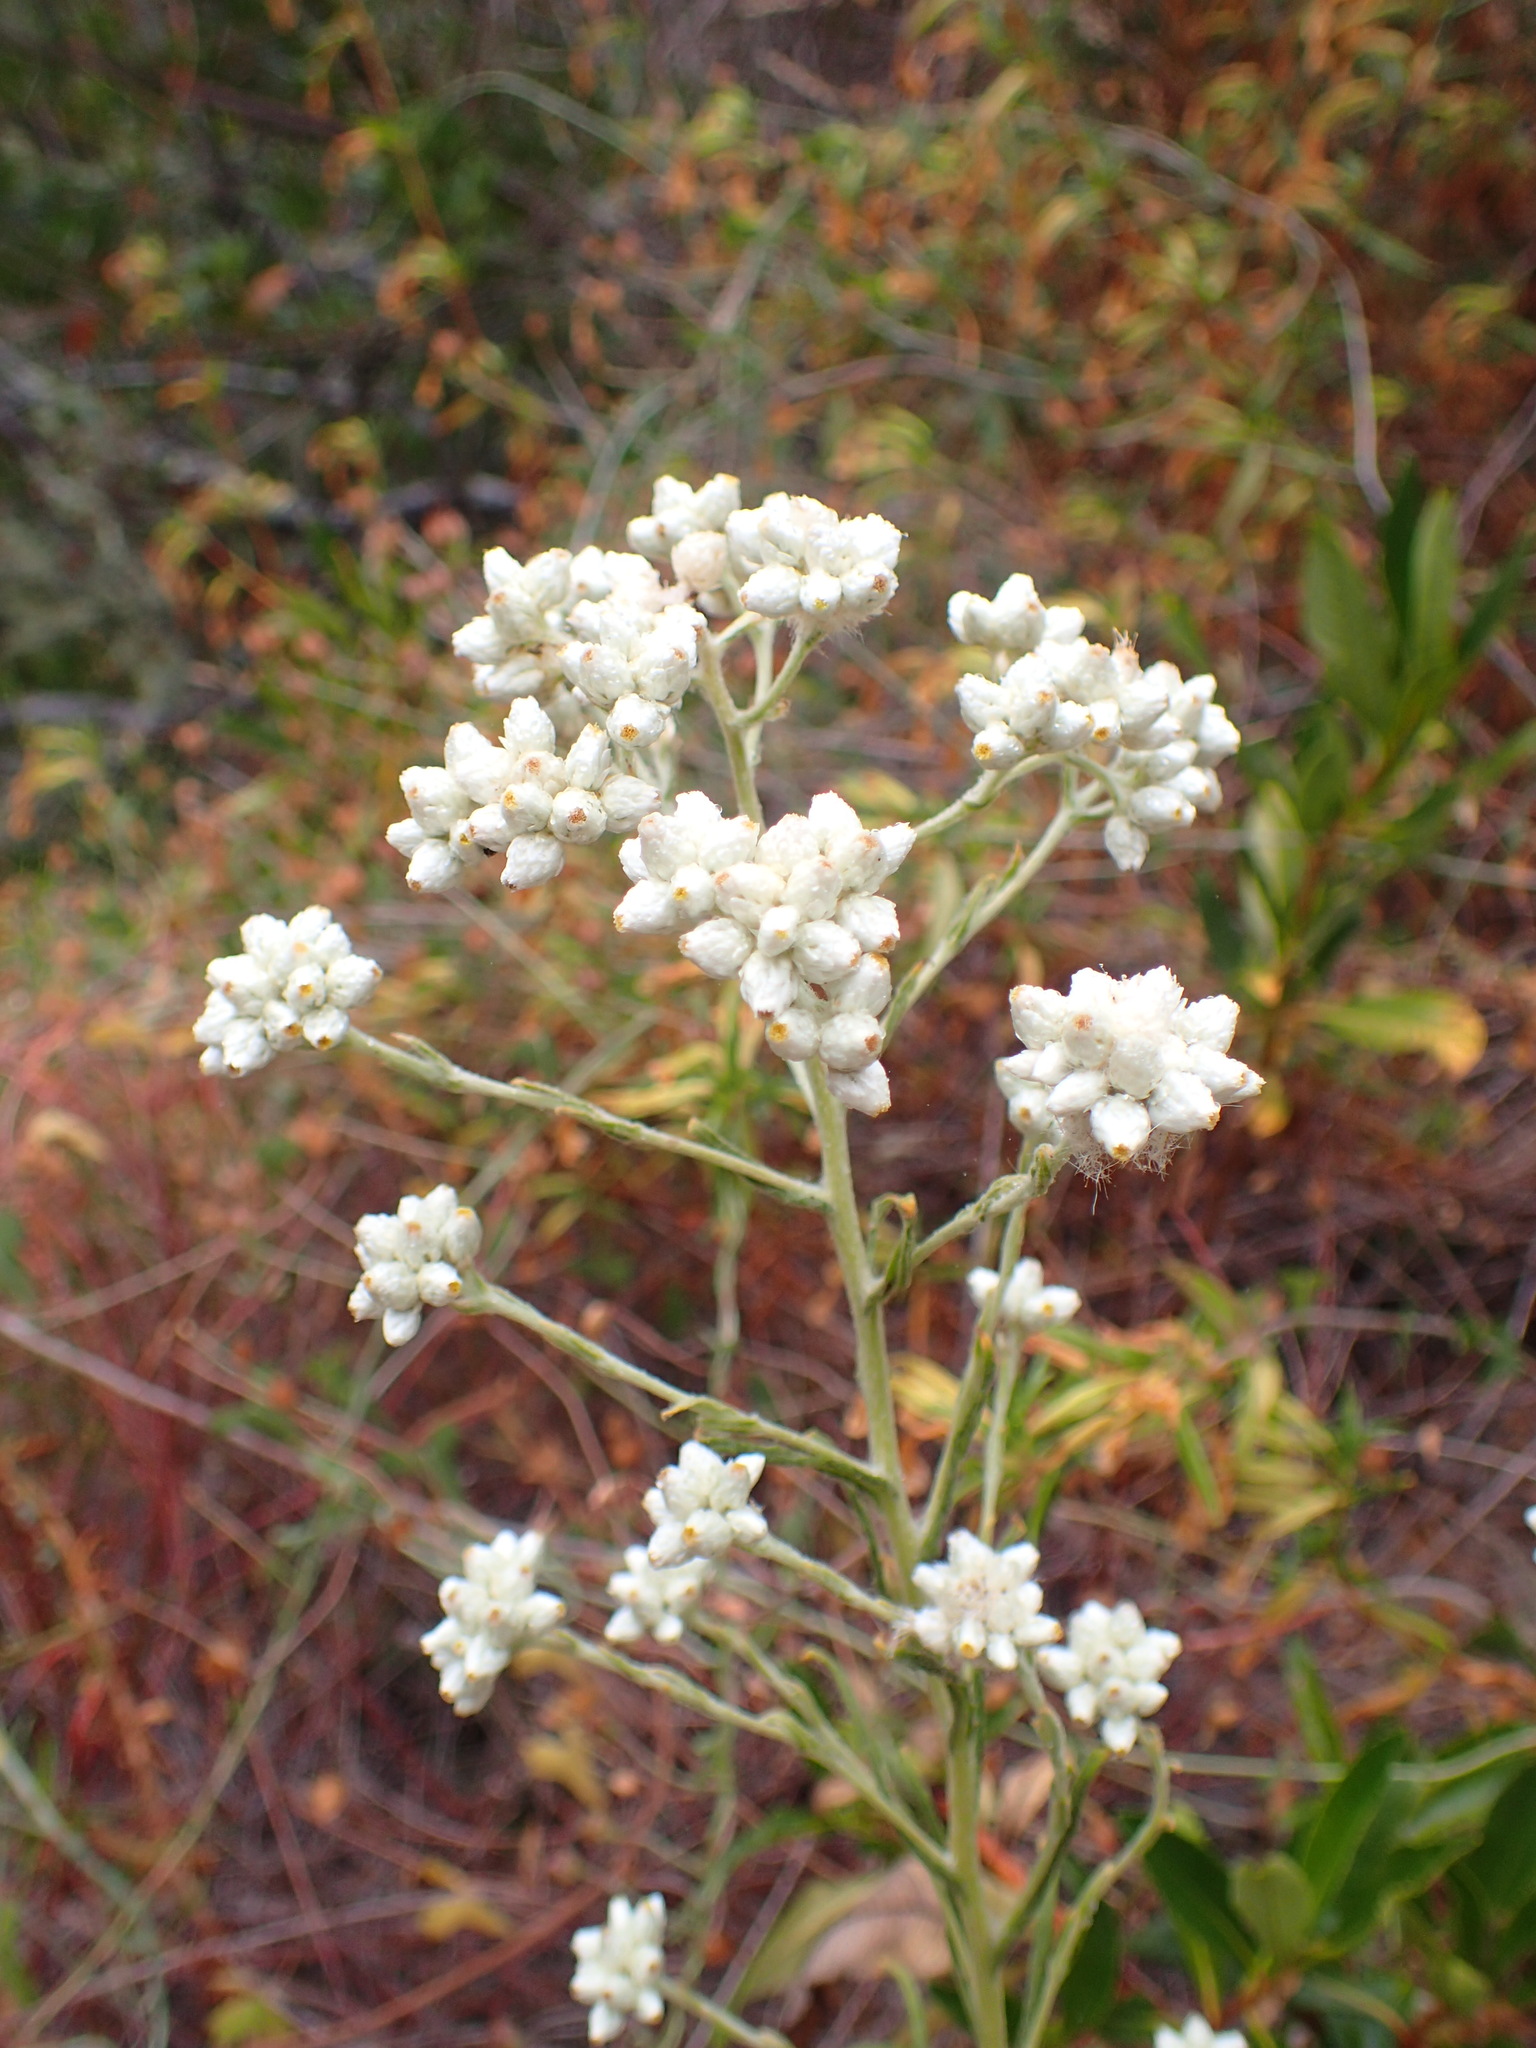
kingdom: Plantae
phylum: Tracheophyta
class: Magnoliopsida
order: Asterales
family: Asteraceae
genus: Pseudognaphalium
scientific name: Pseudognaphalium californicum
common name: California rabbit-tobacco
